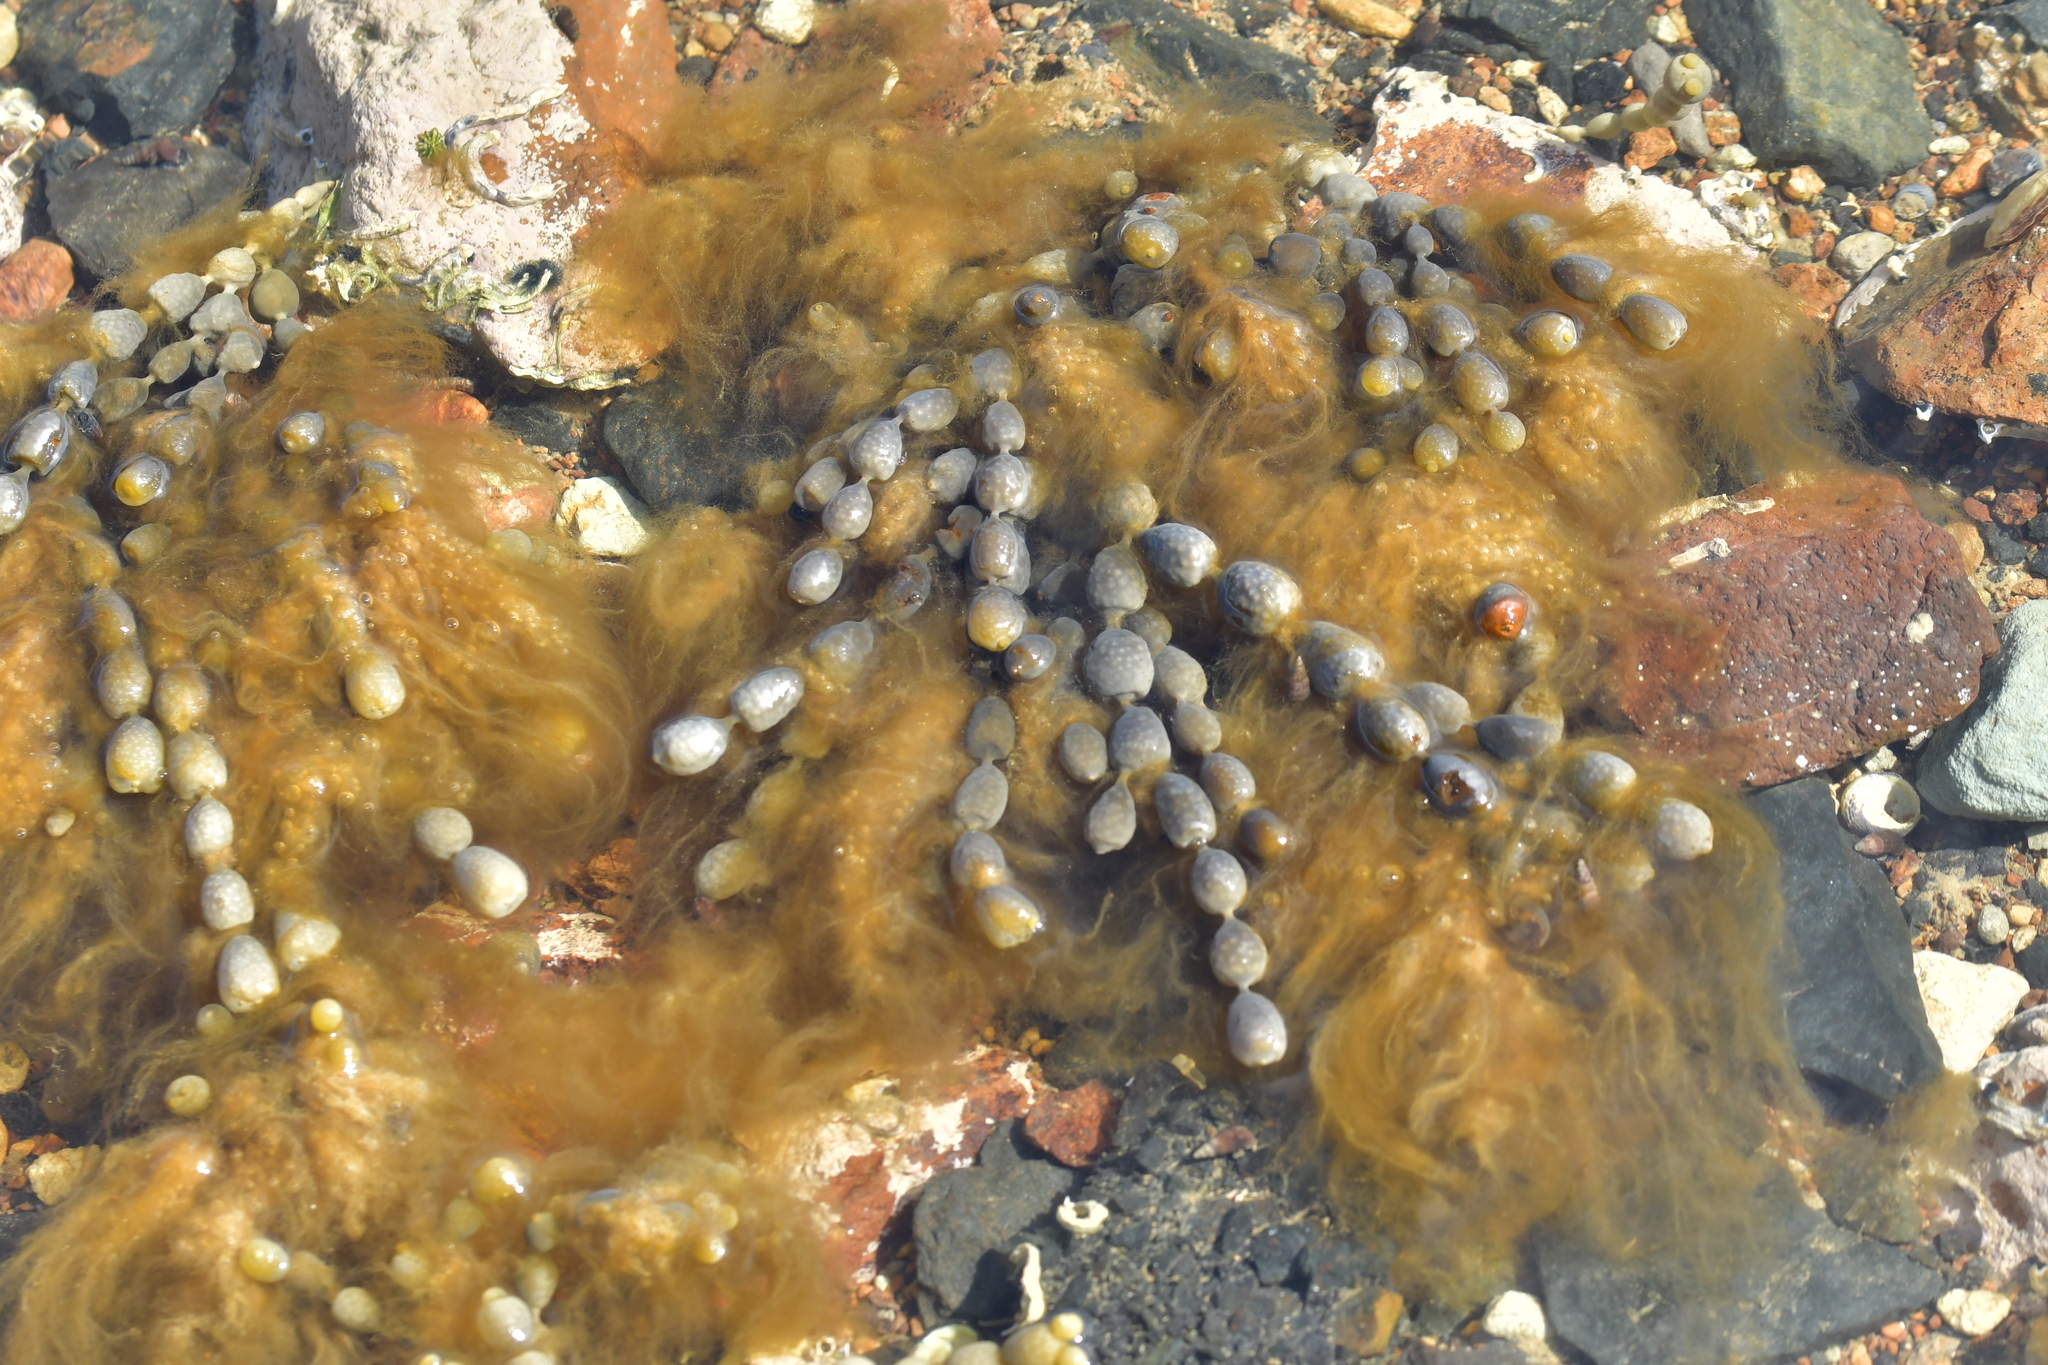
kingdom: Chromista
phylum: Ochrophyta
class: Phaeophyceae
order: Fucales
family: Hormosiraceae
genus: Hormosira
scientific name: Hormosira banksii
